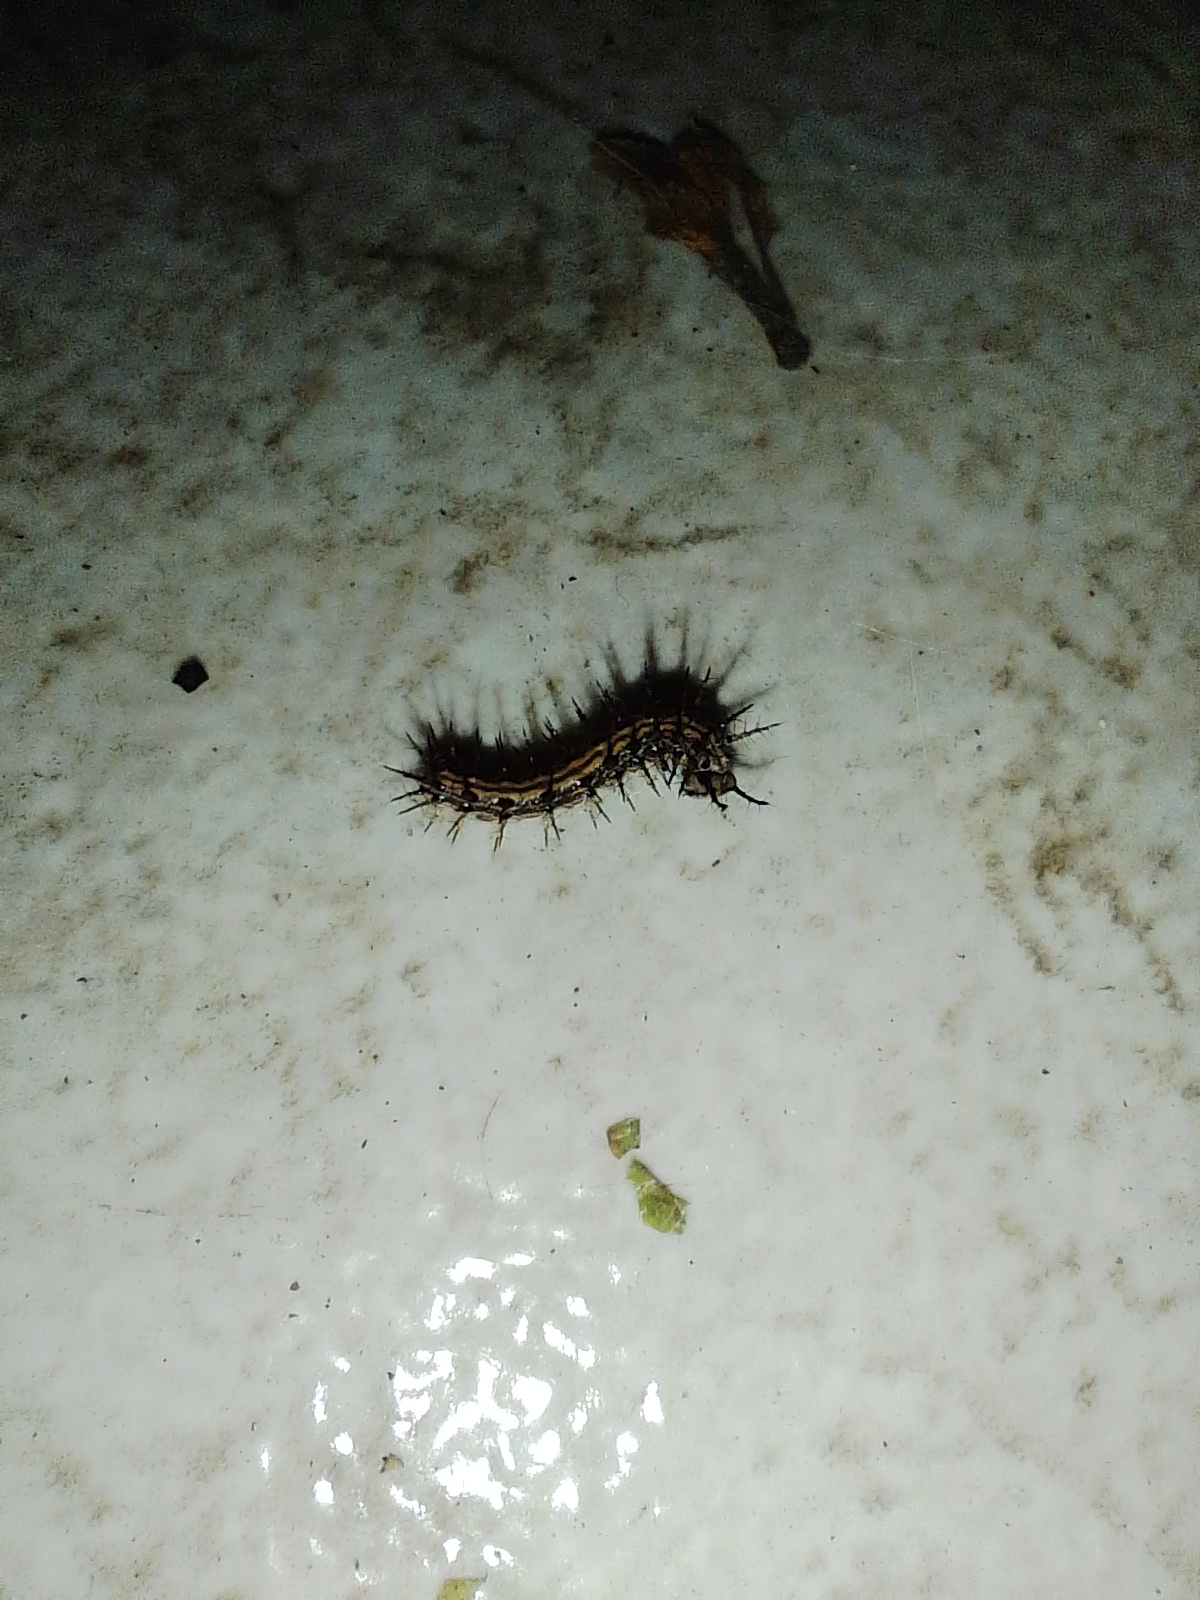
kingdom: Animalia
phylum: Arthropoda
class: Insecta
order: Lepidoptera
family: Nymphalidae
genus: Dione
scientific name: Dione vanillae
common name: Gulf fritillary
